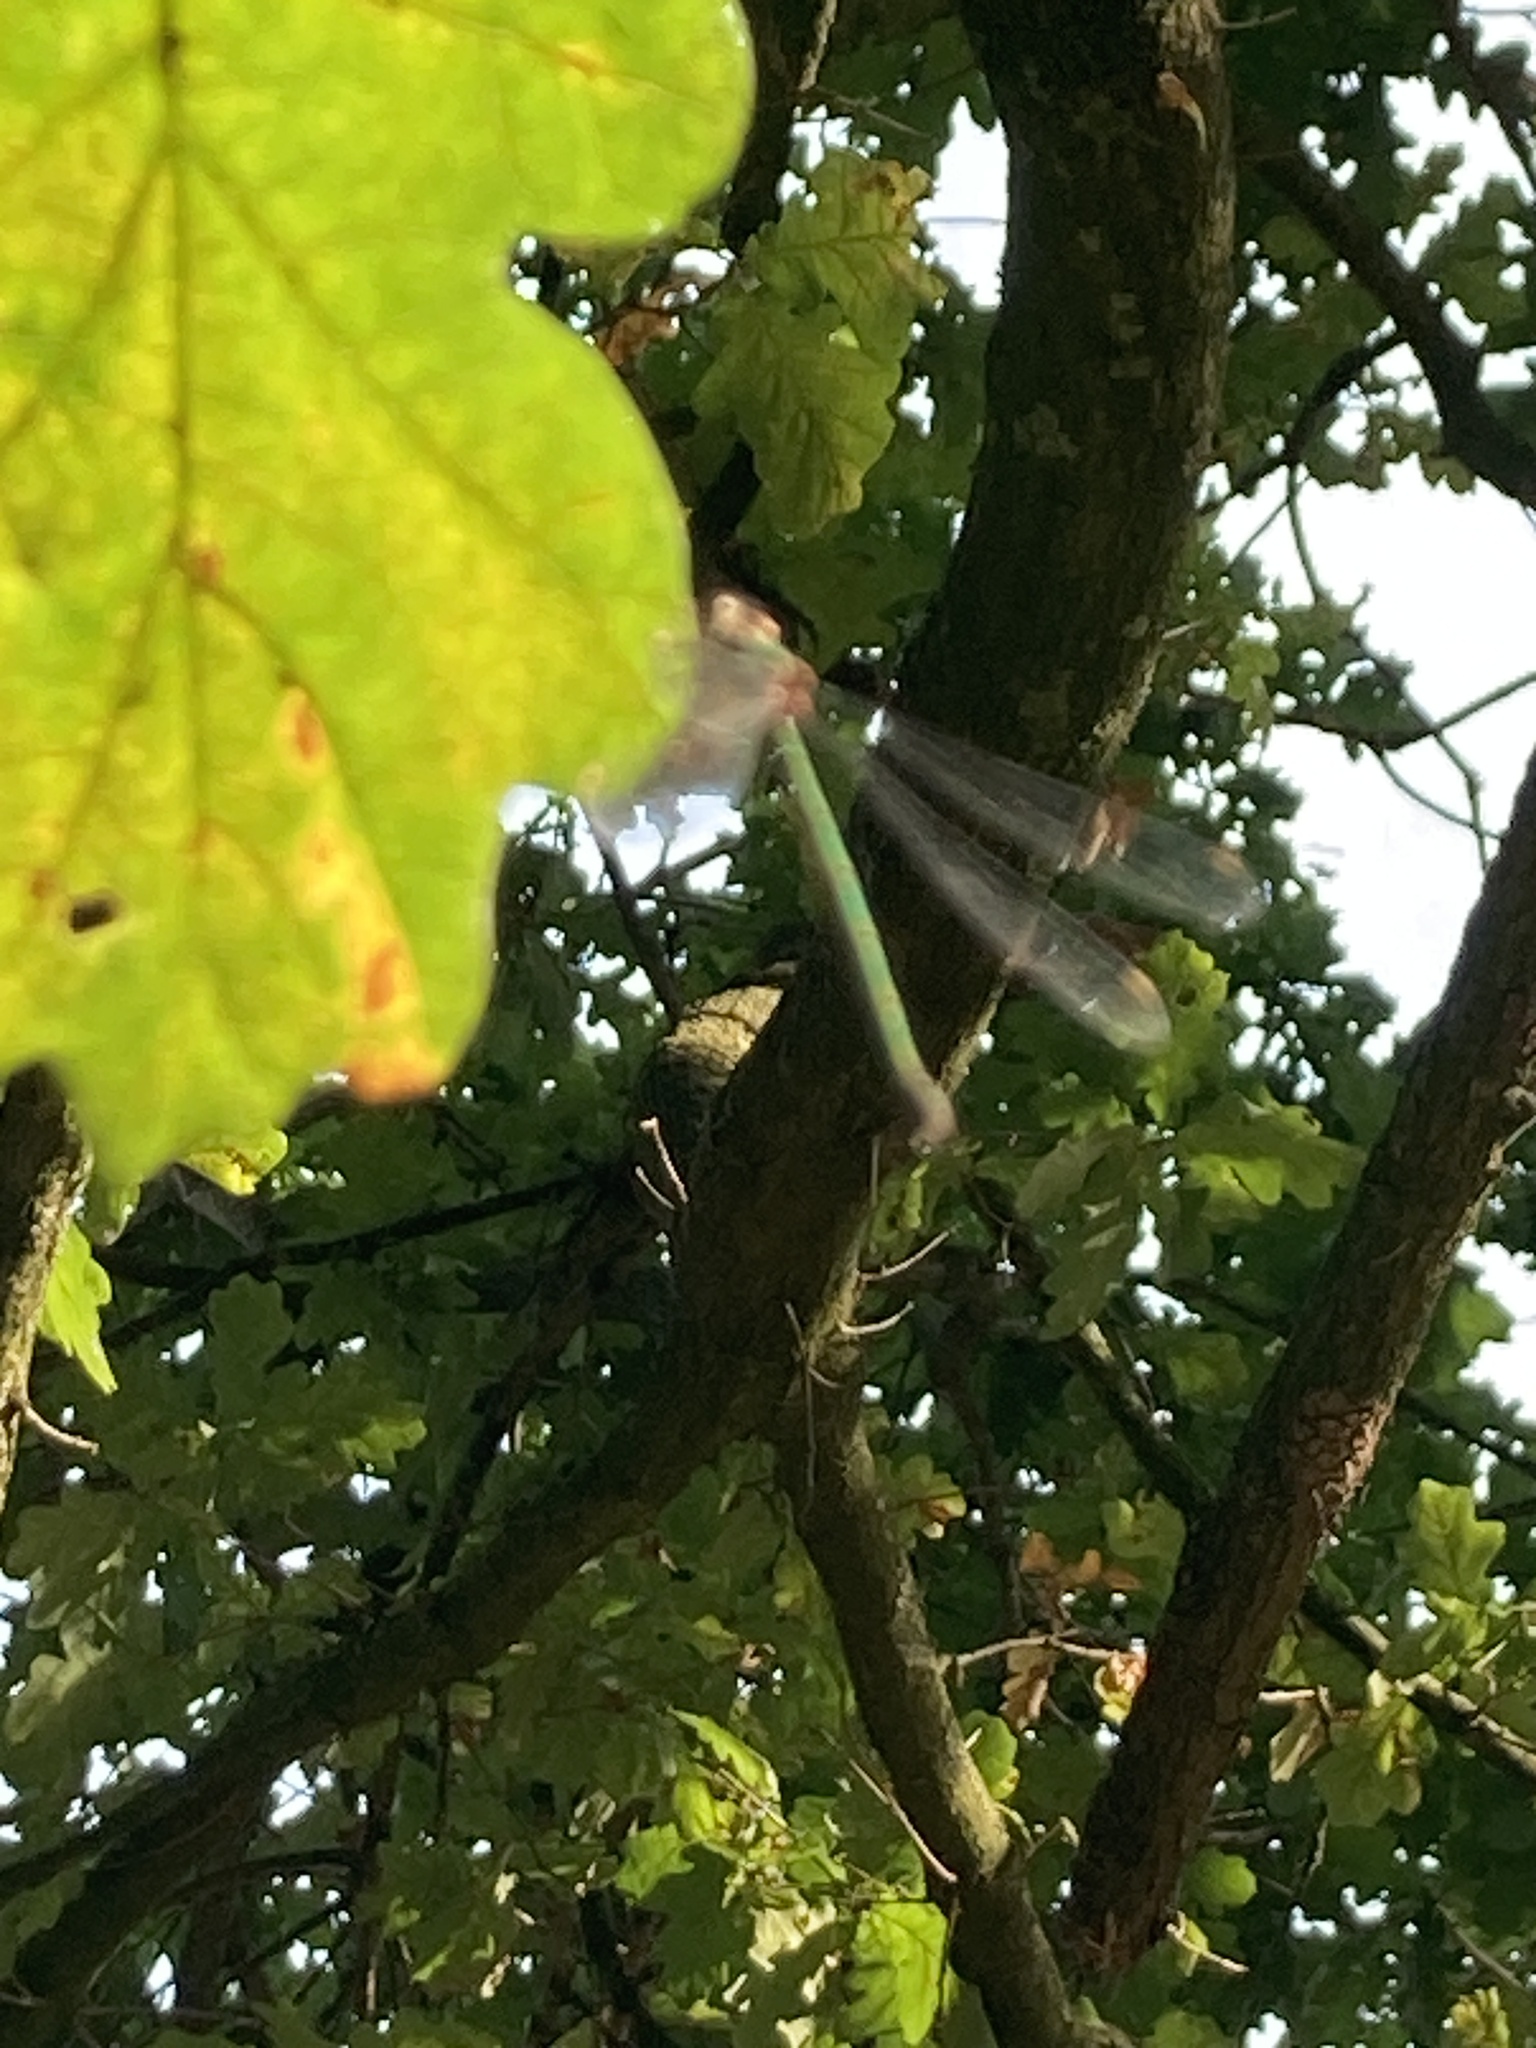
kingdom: Animalia
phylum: Arthropoda
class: Insecta
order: Odonata
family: Lestidae
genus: Chalcolestes
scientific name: Chalcolestes viridis
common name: Green emerald damselfly
